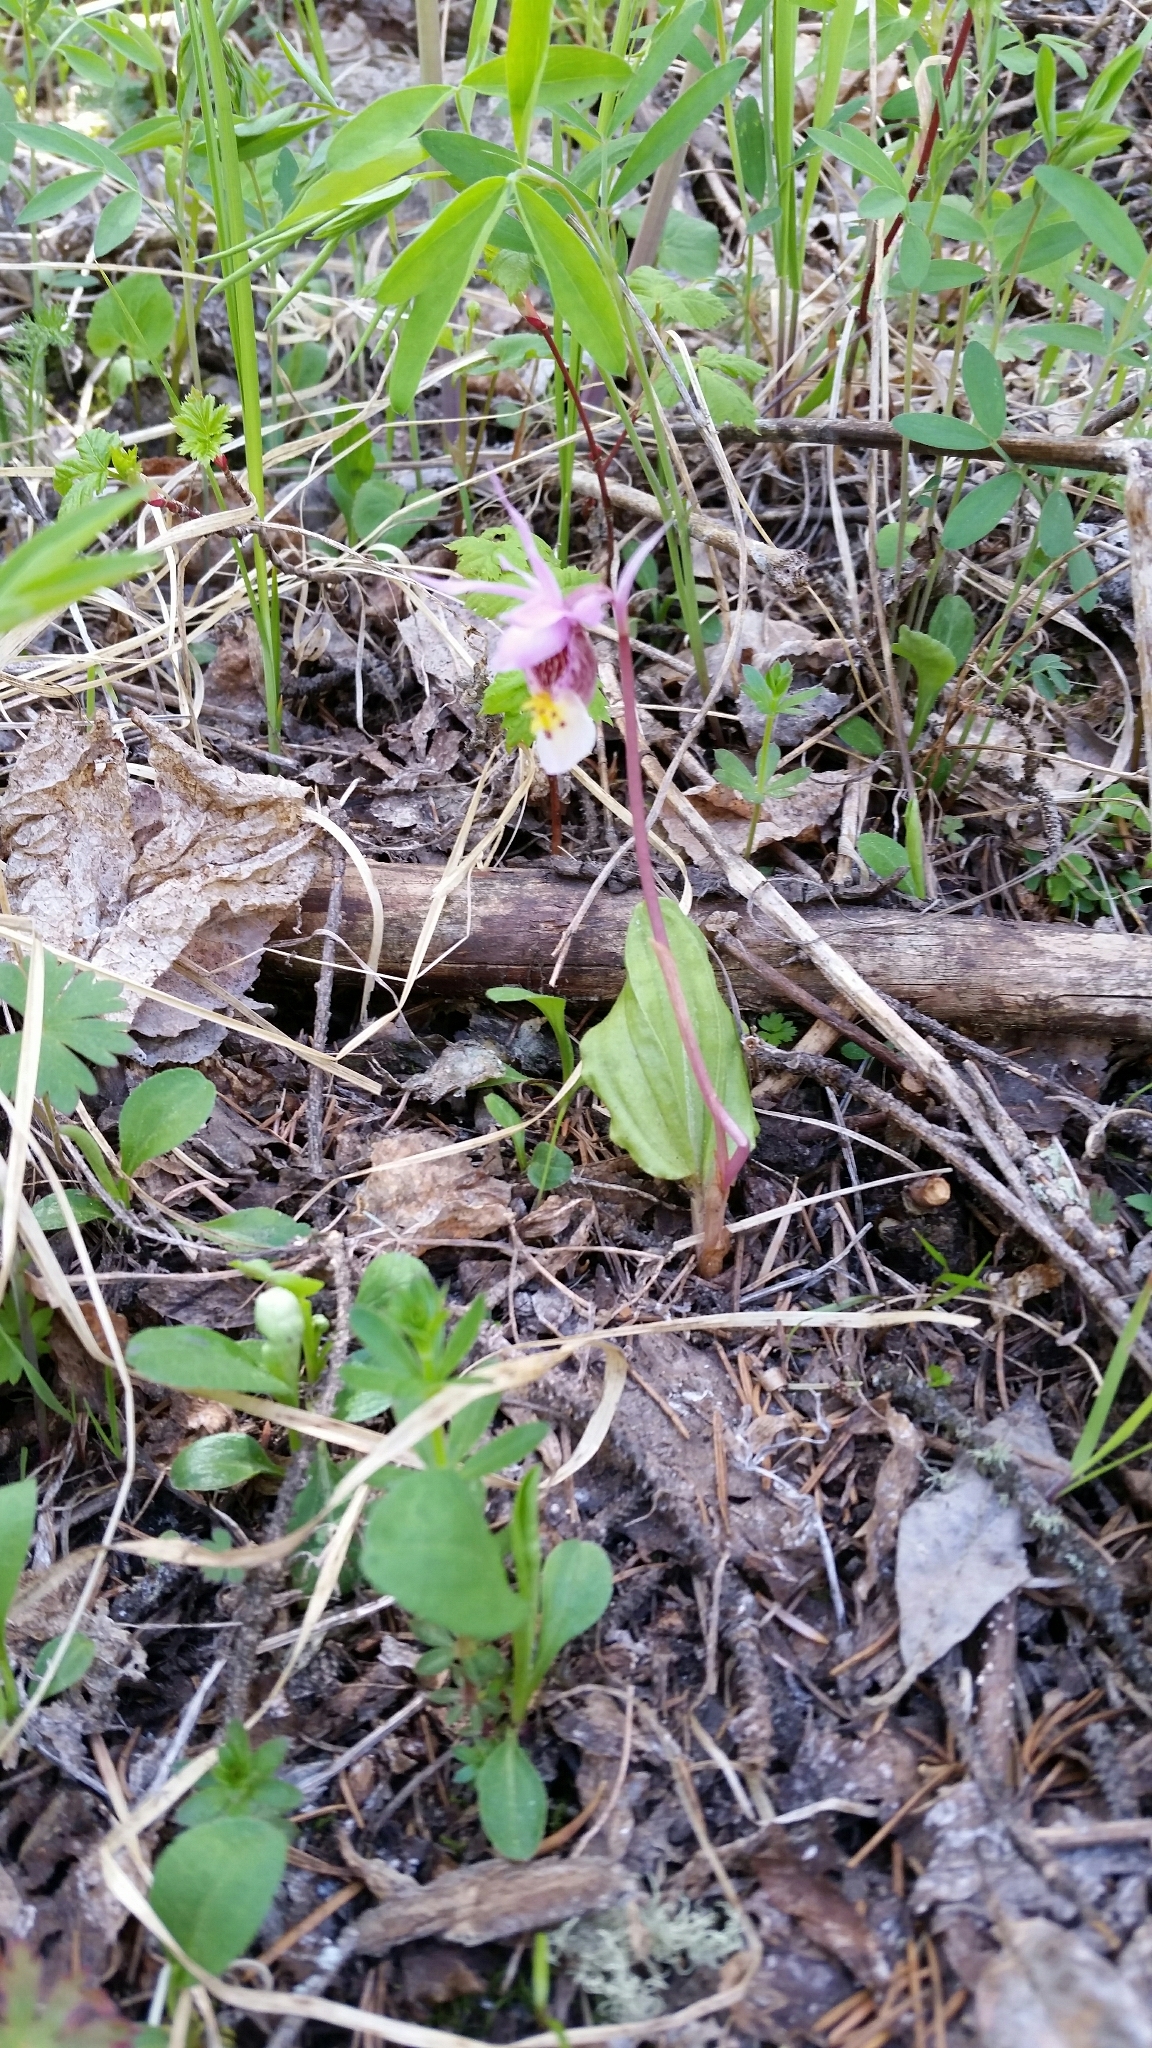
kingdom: Plantae
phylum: Tracheophyta
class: Liliopsida
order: Asparagales
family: Orchidaceae
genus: Calypso
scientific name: Calypso bulbosa
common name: Calypso
